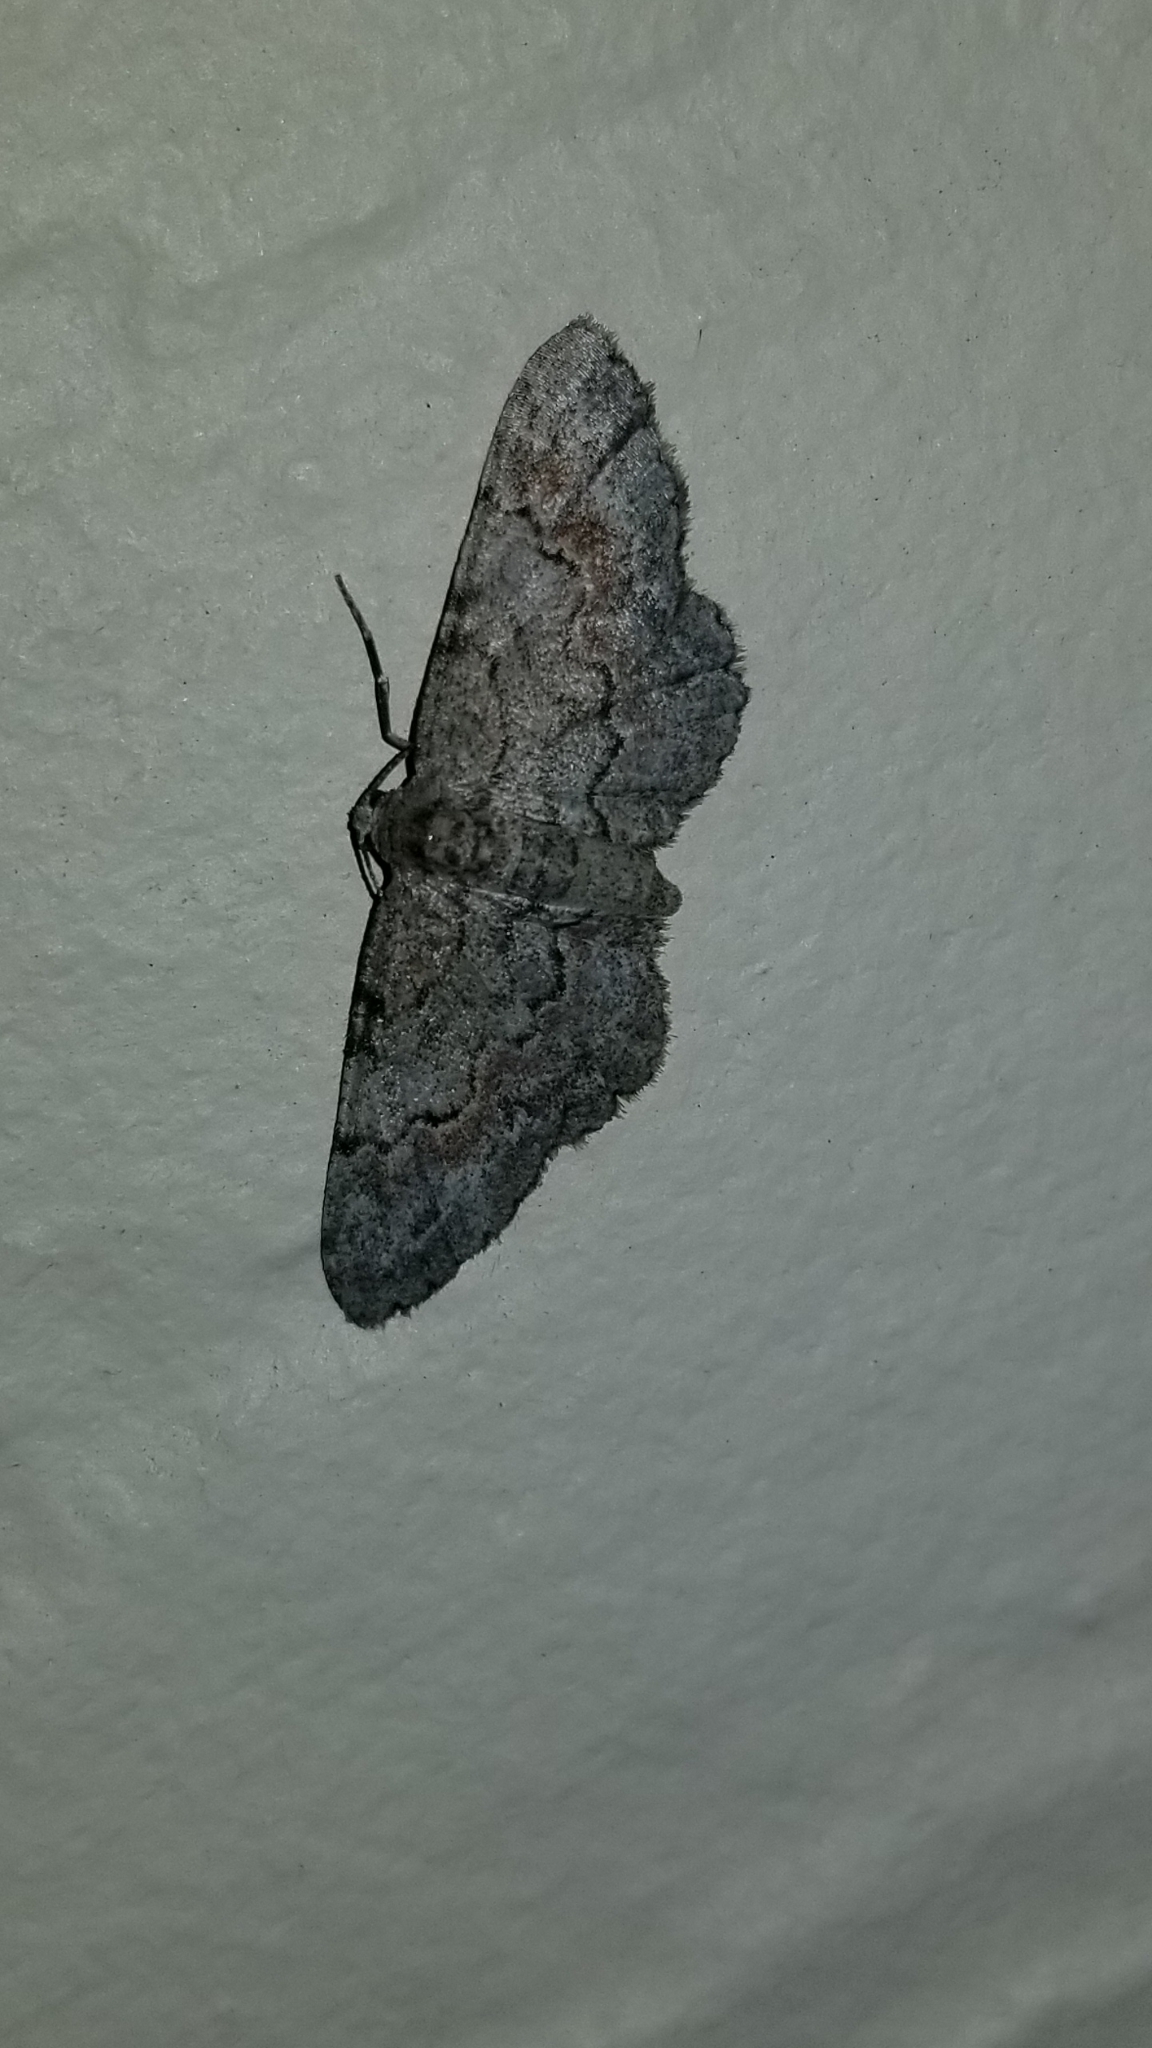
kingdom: Animalia
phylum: Arthropoda
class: Insecta
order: Lepidoptera
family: Geometridae
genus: Glenoides
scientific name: Glenoides texanaria
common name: Texas gray
